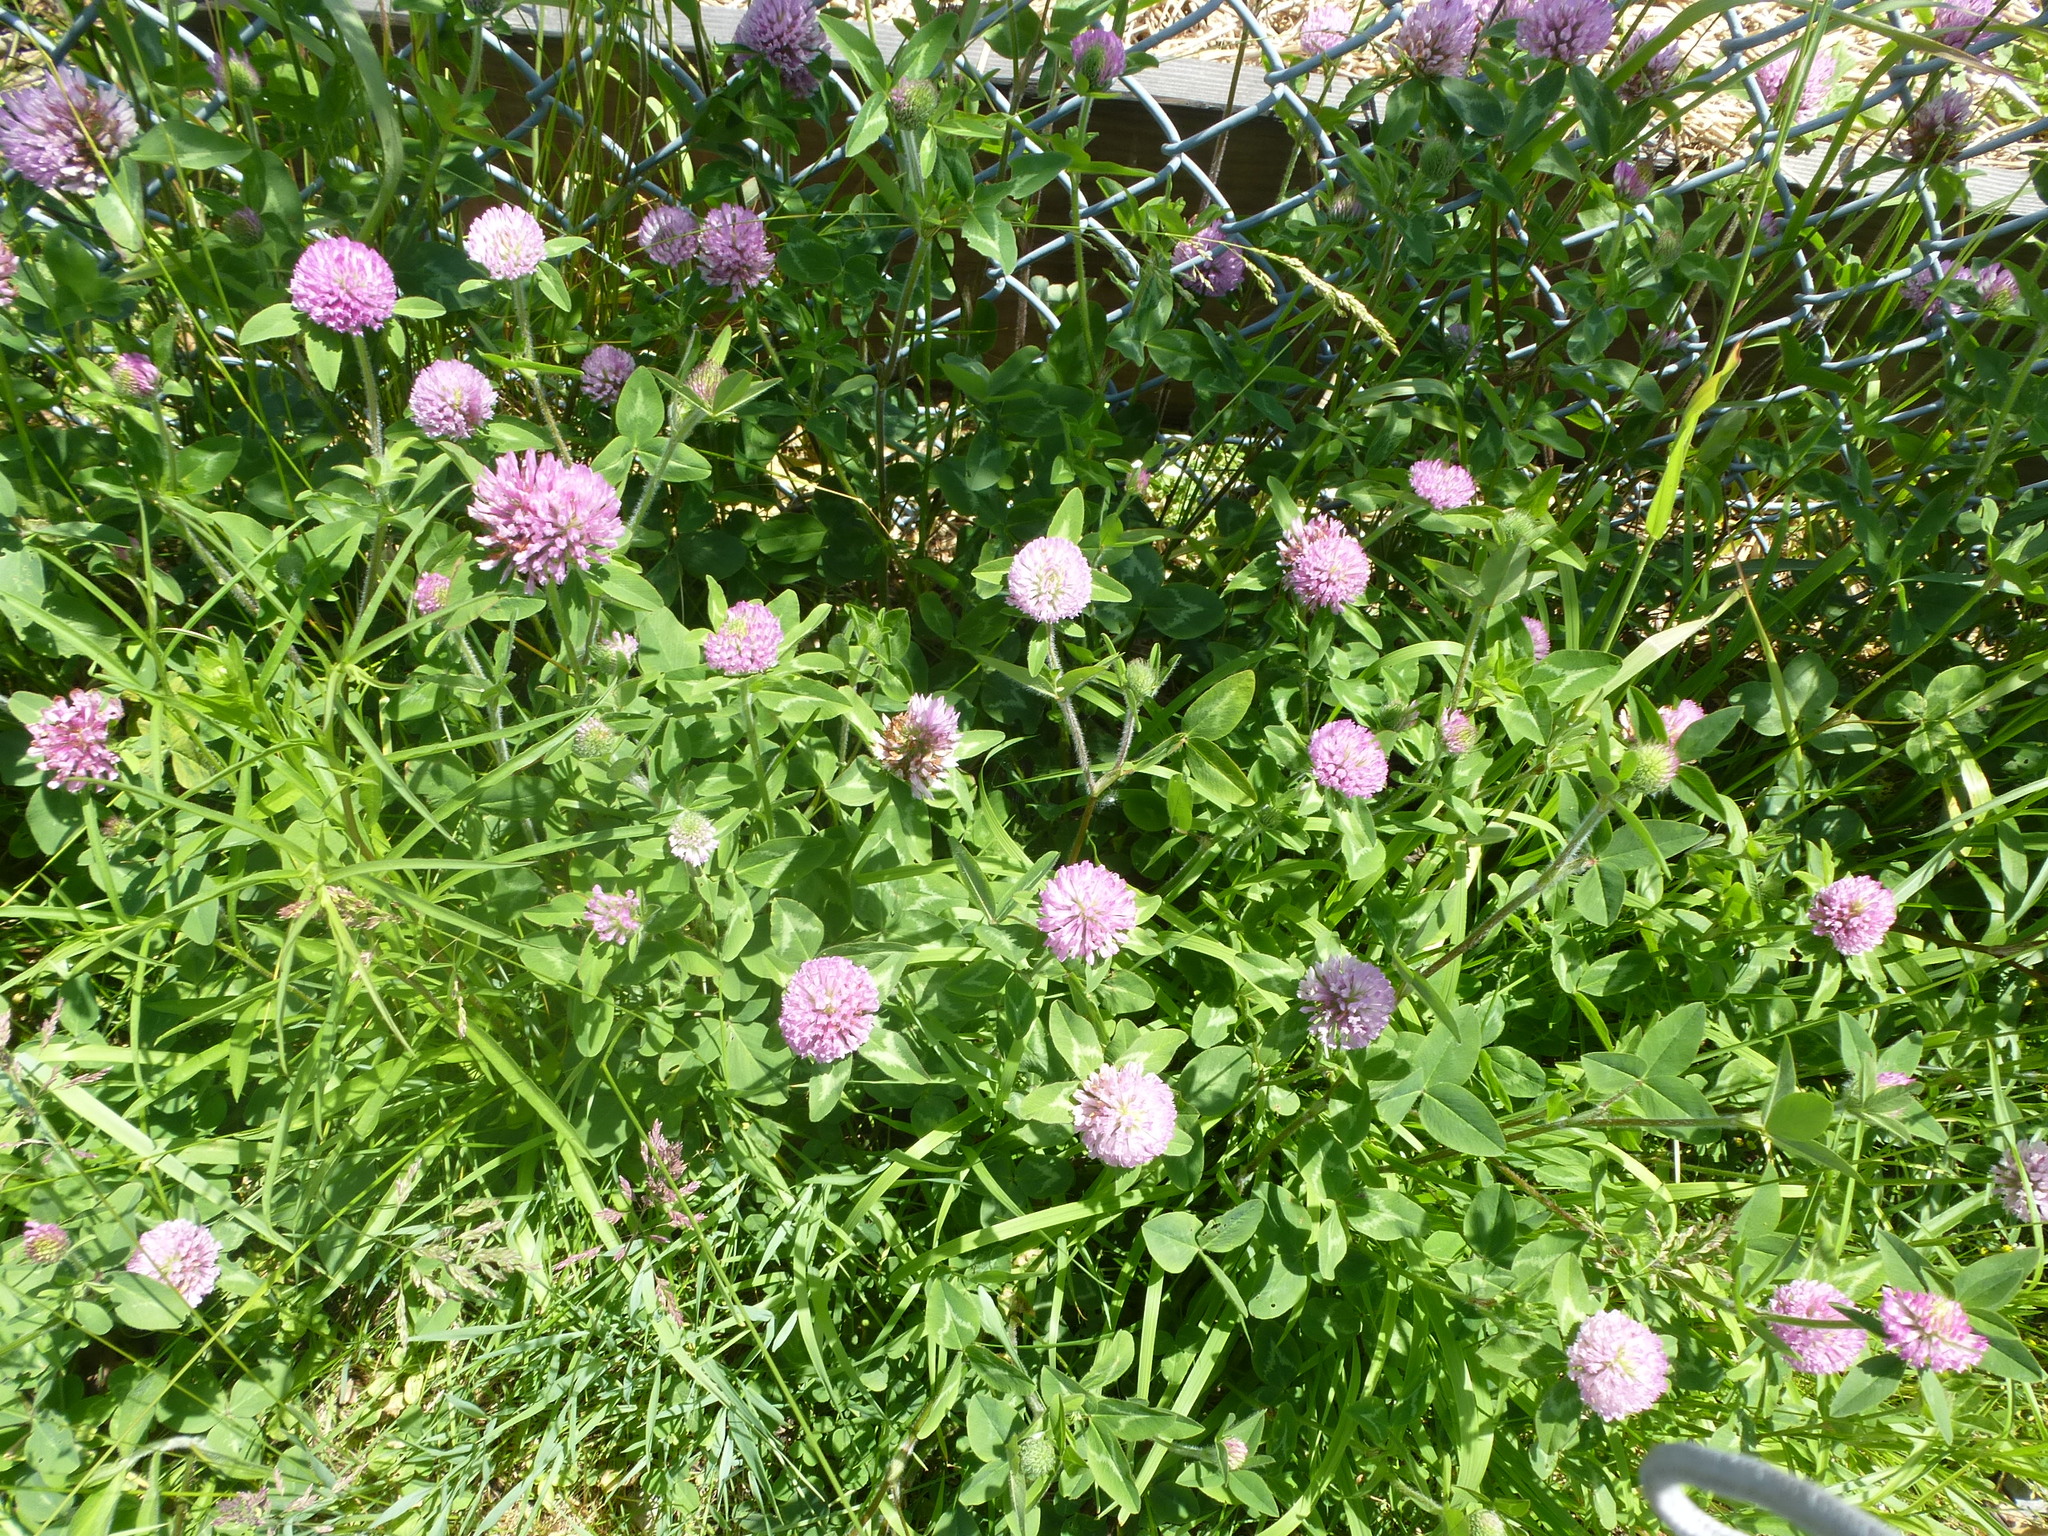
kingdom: Plantae
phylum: Tracheophyta
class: Magnoliopsida
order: Fabales
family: Fabaceae
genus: Trifolium
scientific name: Trifolium pratense
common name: Red clover
